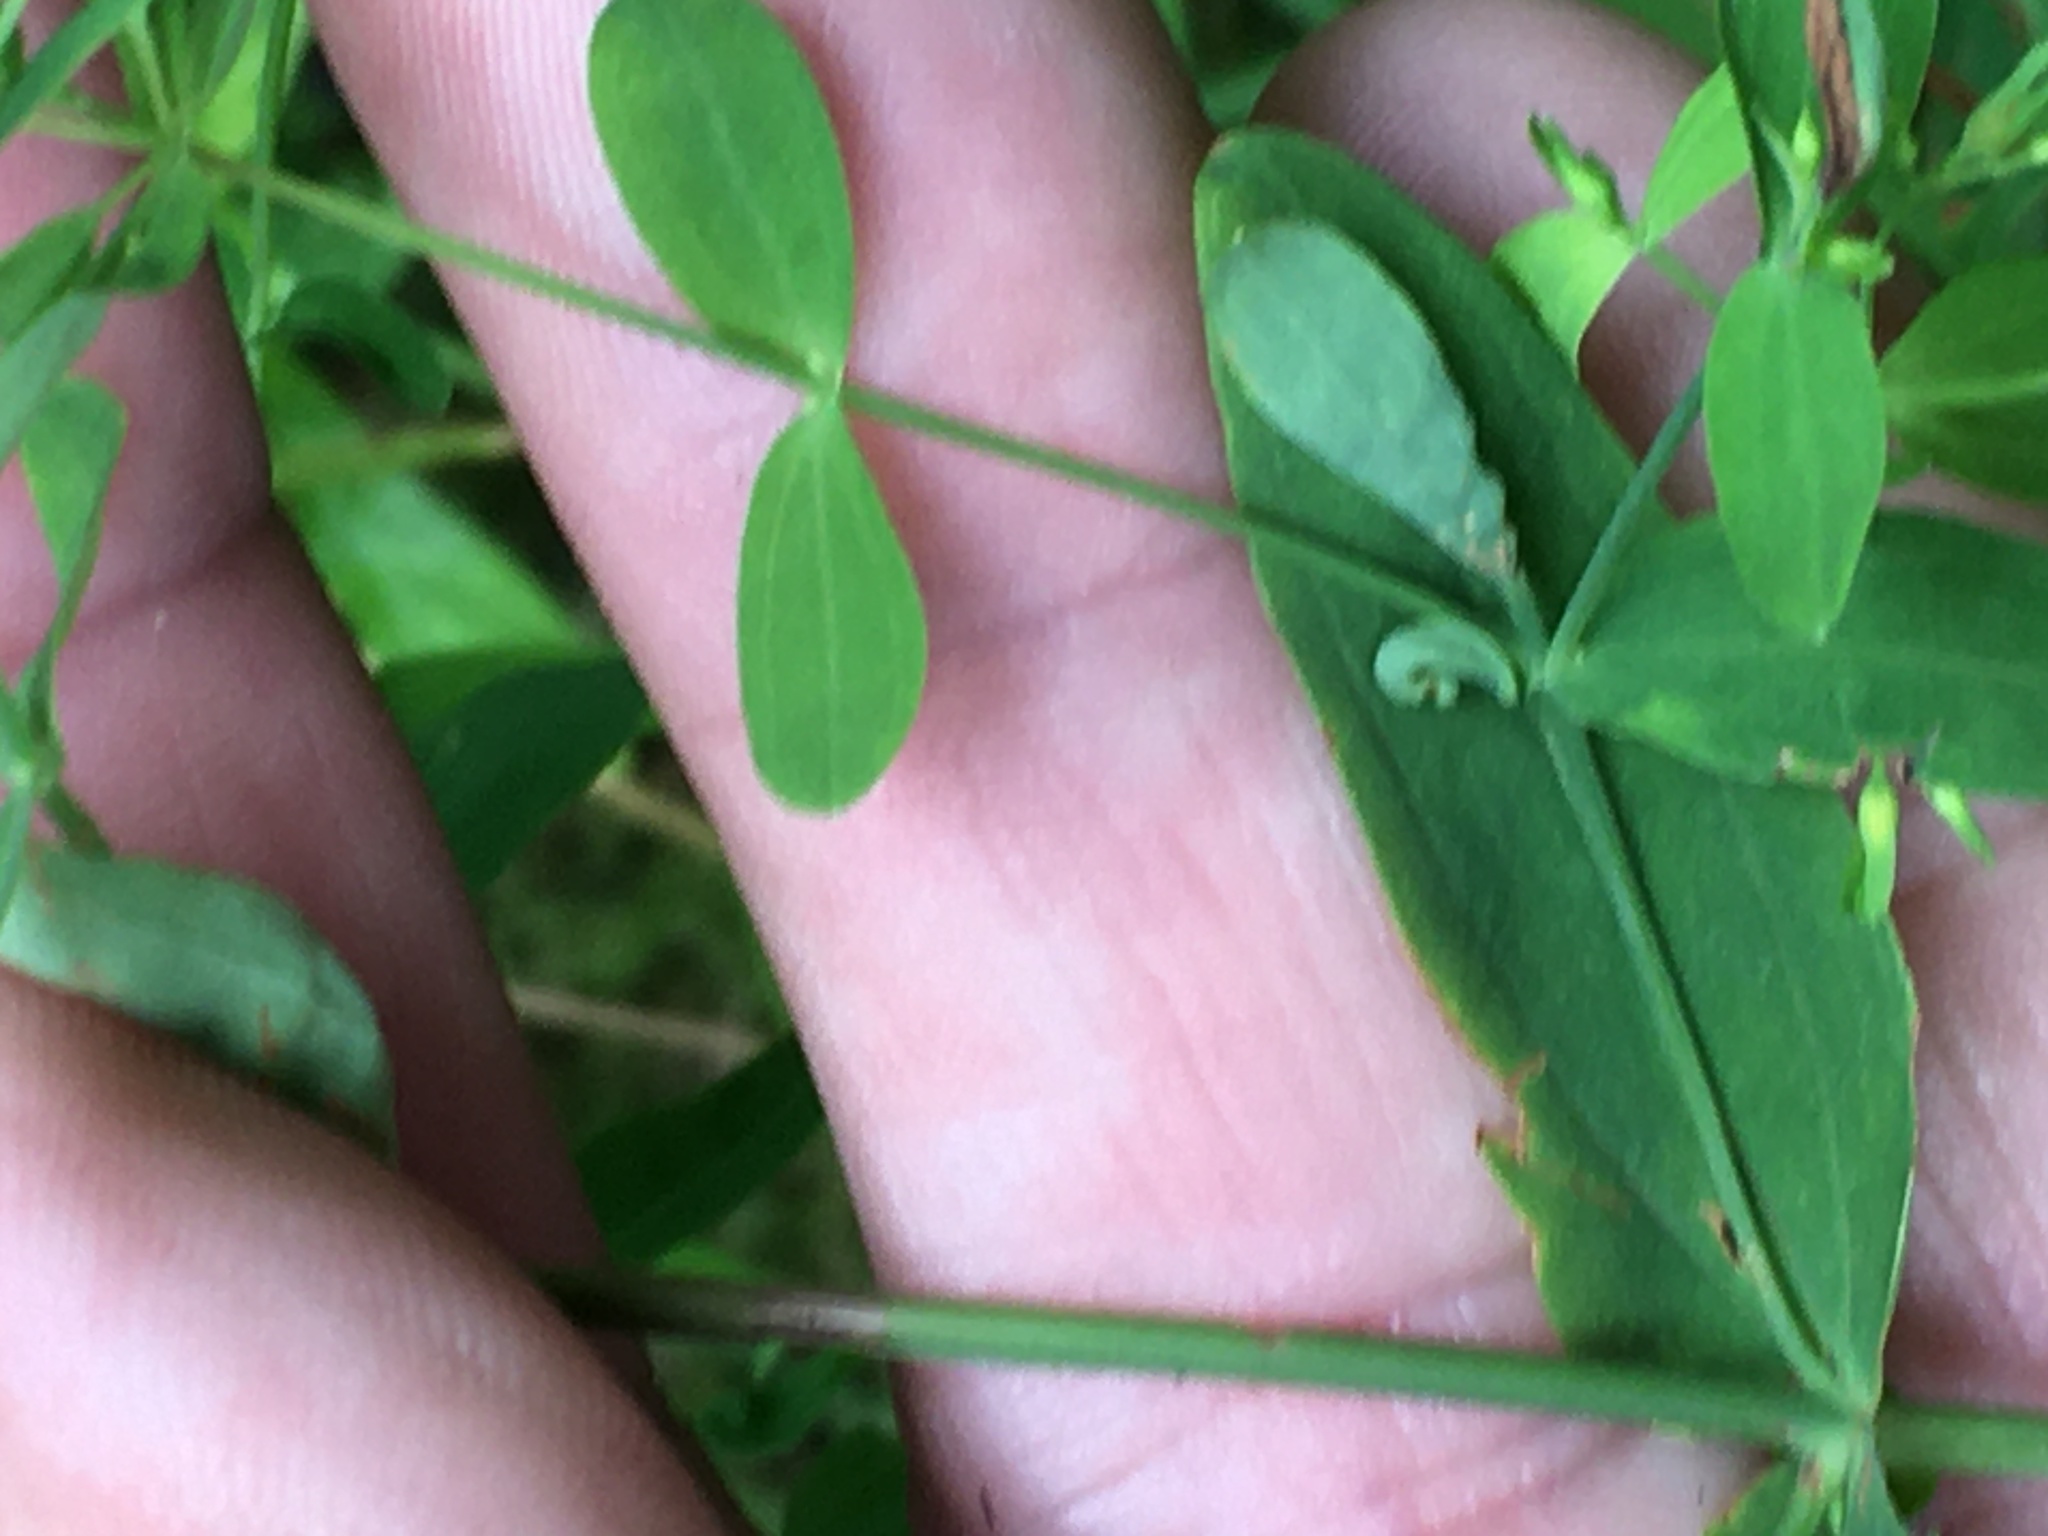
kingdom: Plantae
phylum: Tracheophyta
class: Magnoliopsida
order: Malpighiales
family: Hypericaceae
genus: Hypericum
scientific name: Hypericum mutilum
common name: Dwarf st. john's-wort
